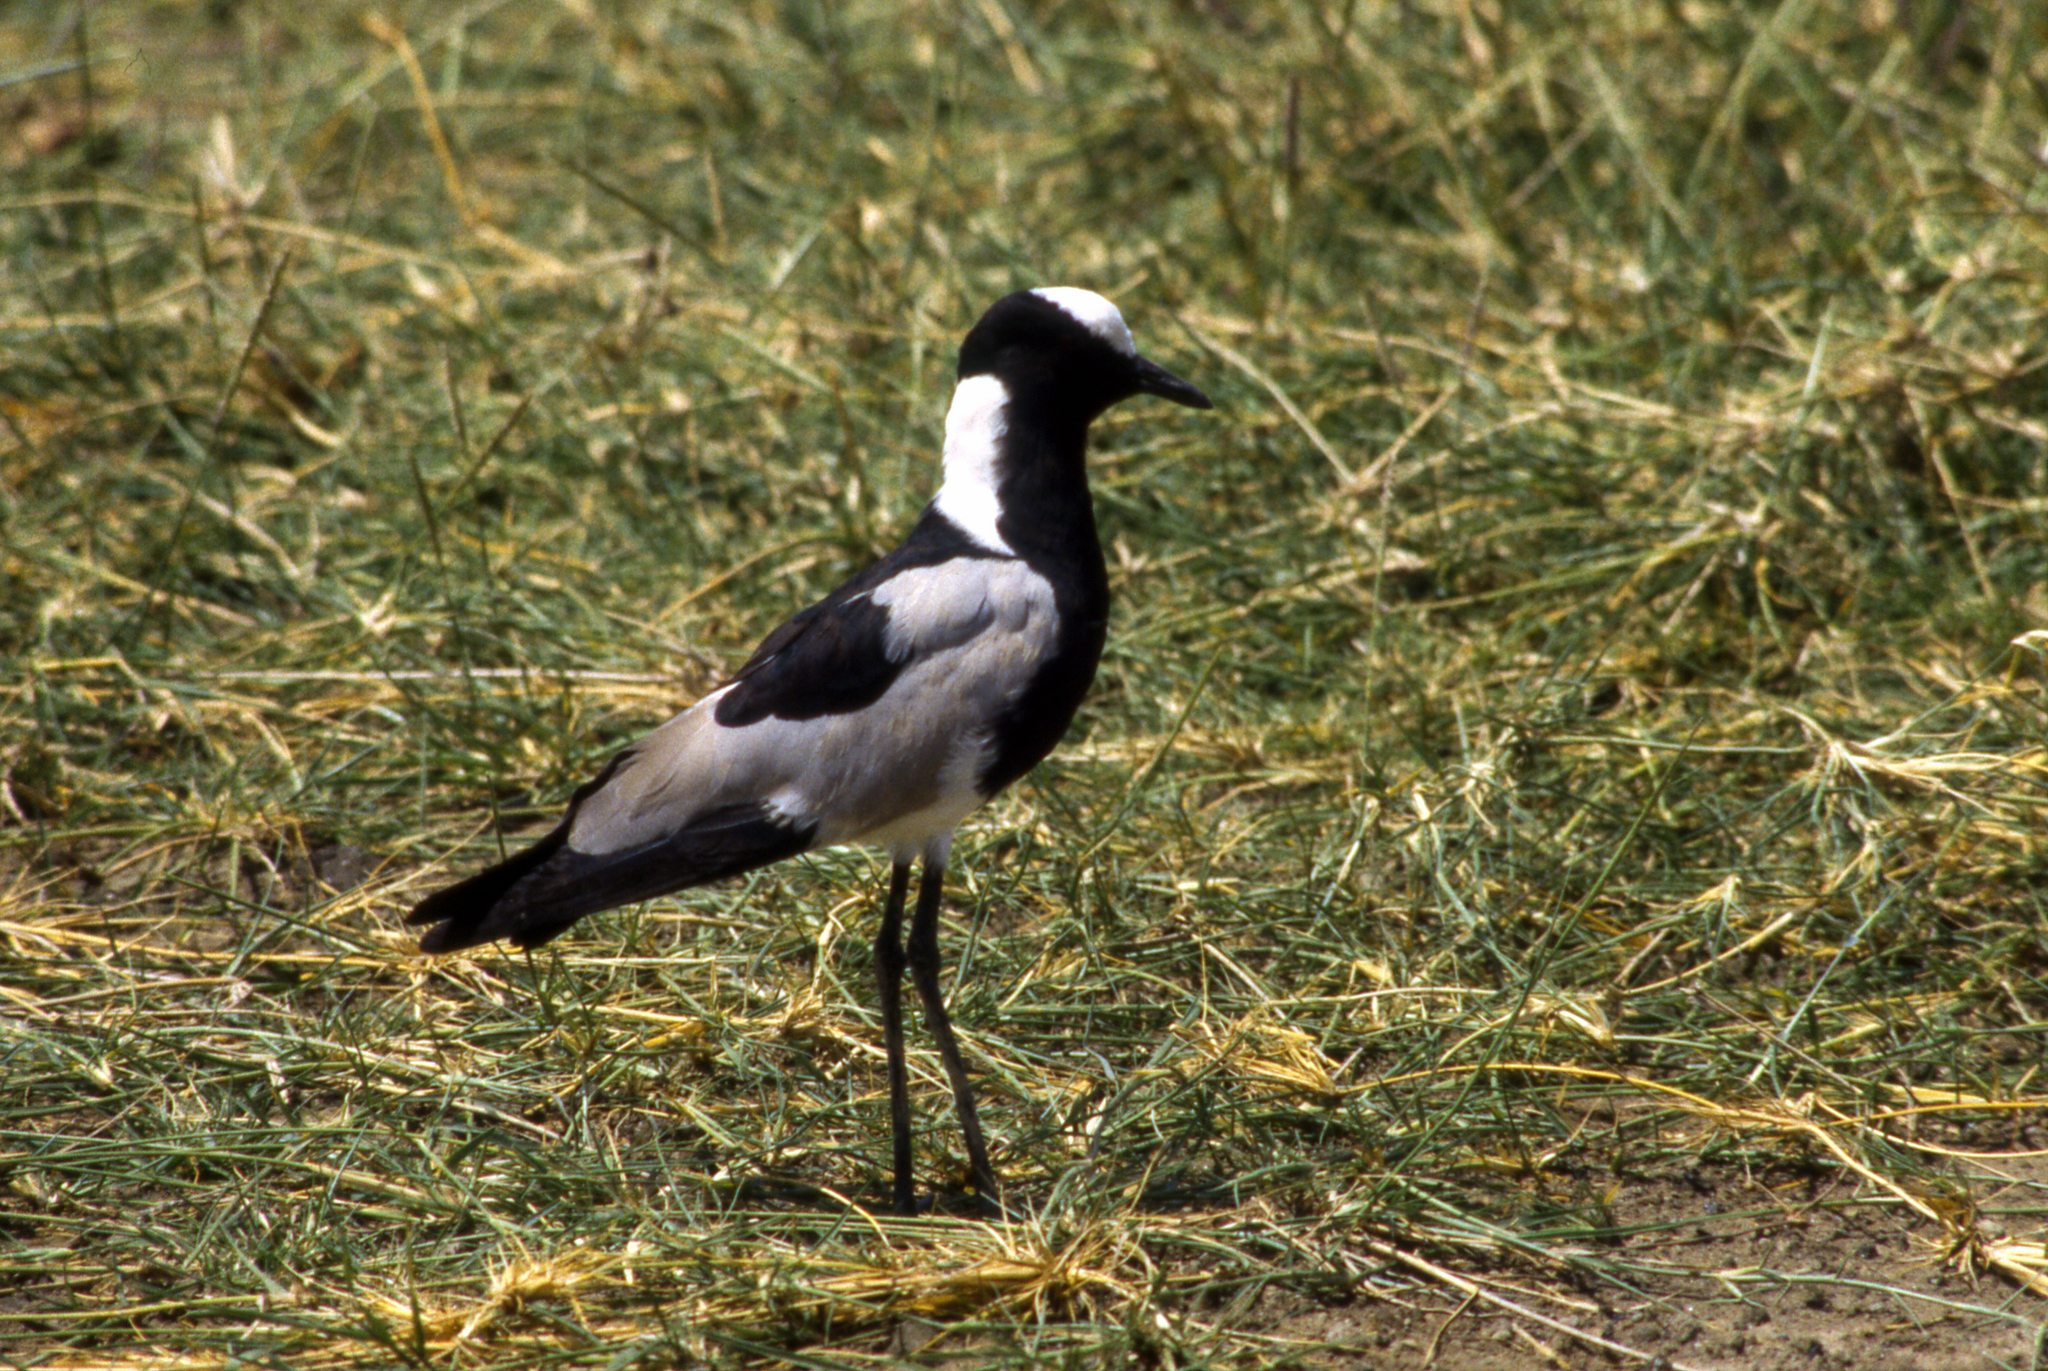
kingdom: Animalia
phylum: Chordata
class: Aves
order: Charadriiformes
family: Charadriidae
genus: Vanellus
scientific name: Vanellus armatus
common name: Blacksmith lapwing
